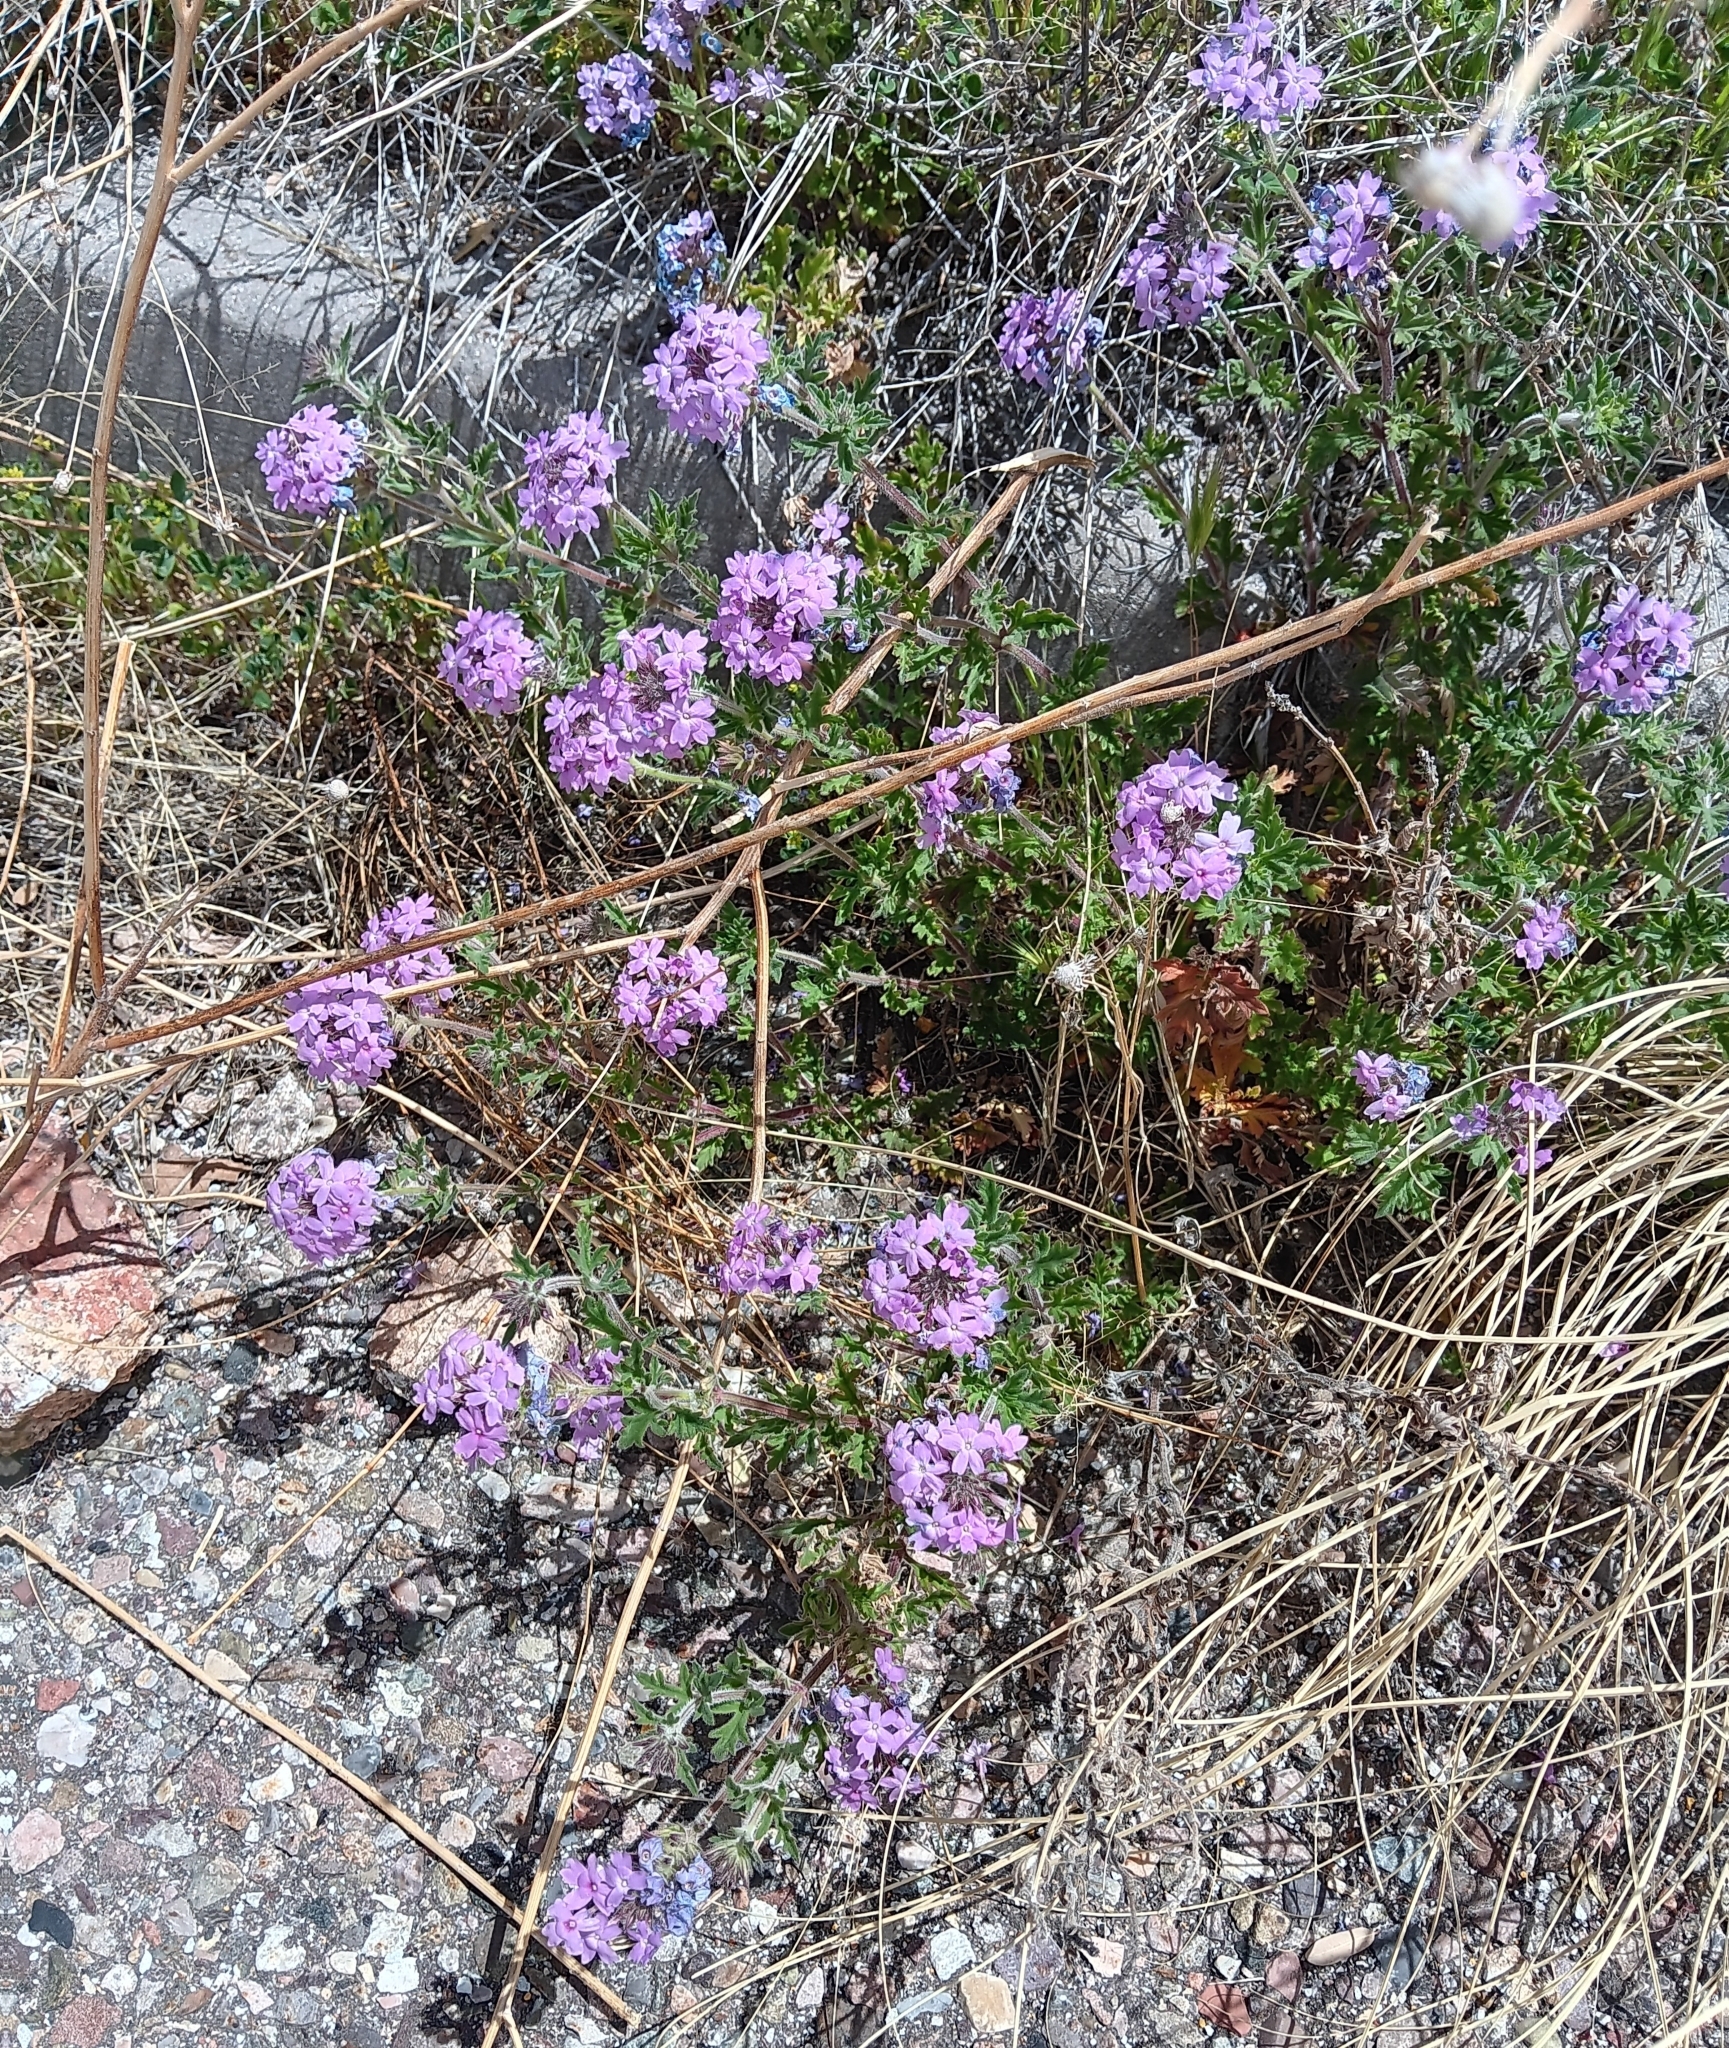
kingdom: Plantae
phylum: Tracheophyta
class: Magnoliopsida
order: Lamiales
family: Verbenaceae
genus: Verbena
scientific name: Verbena gooddingii
